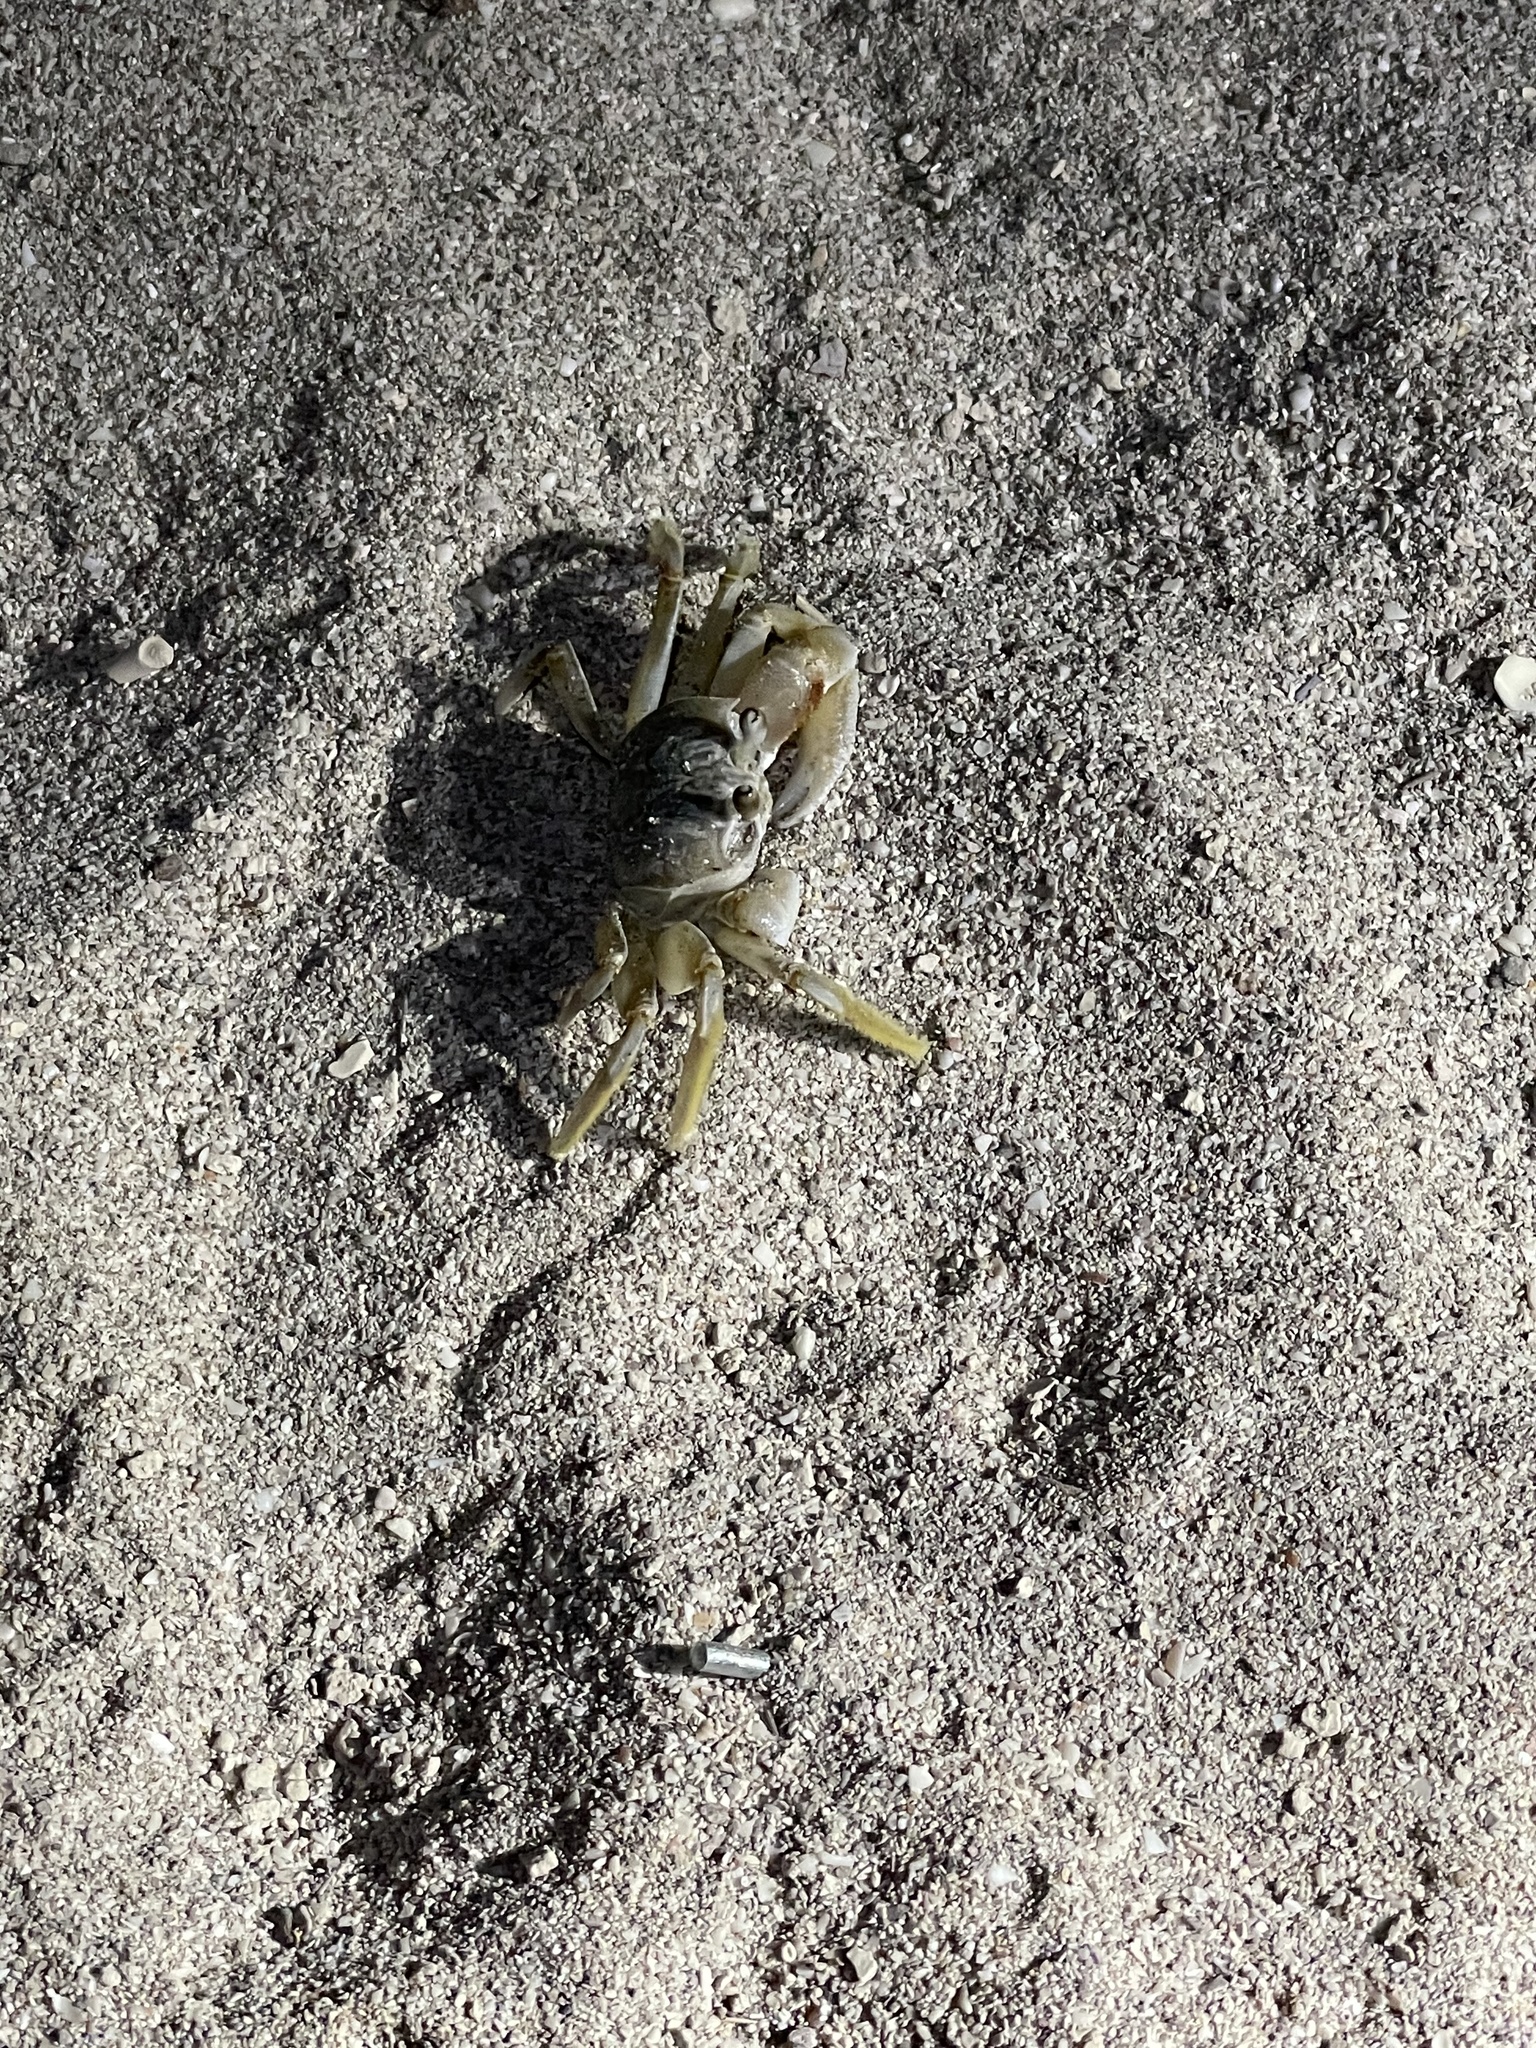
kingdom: Animalia
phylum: Arthropoda
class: Malacostraca
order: Decapoda
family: Ocypodidae
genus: Ocypode
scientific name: Ocypode occidentalis
